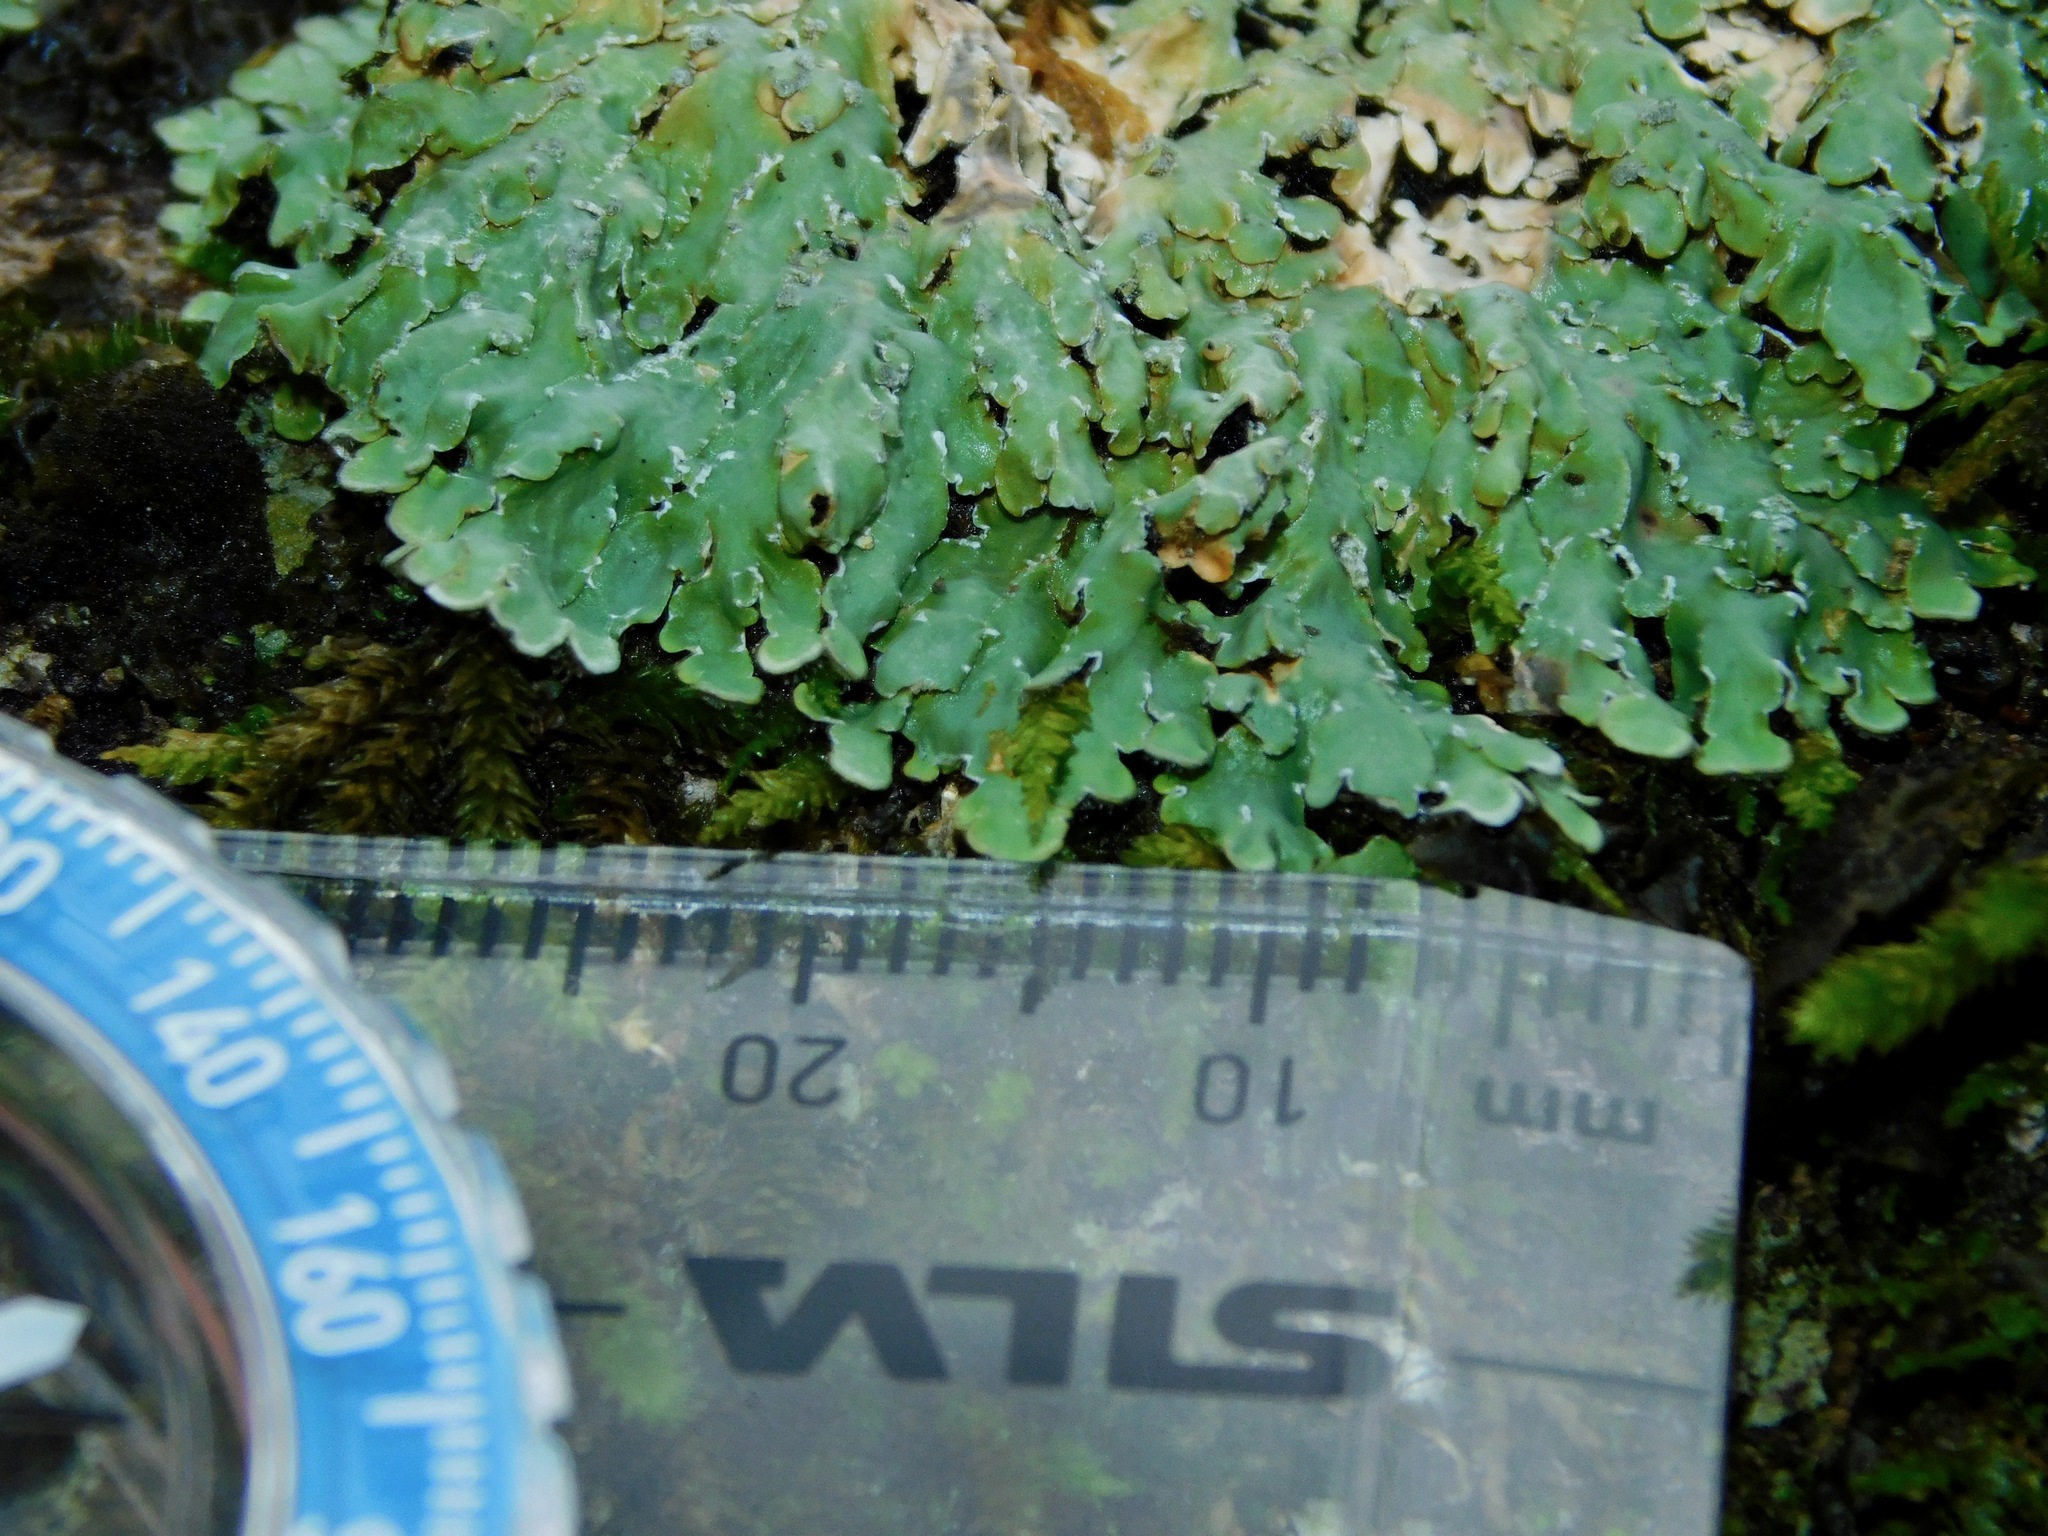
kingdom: Fungi
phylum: Ascomycota
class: Lecanoromycetes
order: Caliciales
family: Caliciaceae
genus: Pyxine
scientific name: Pyxine sorediata
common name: Mustard lichen
